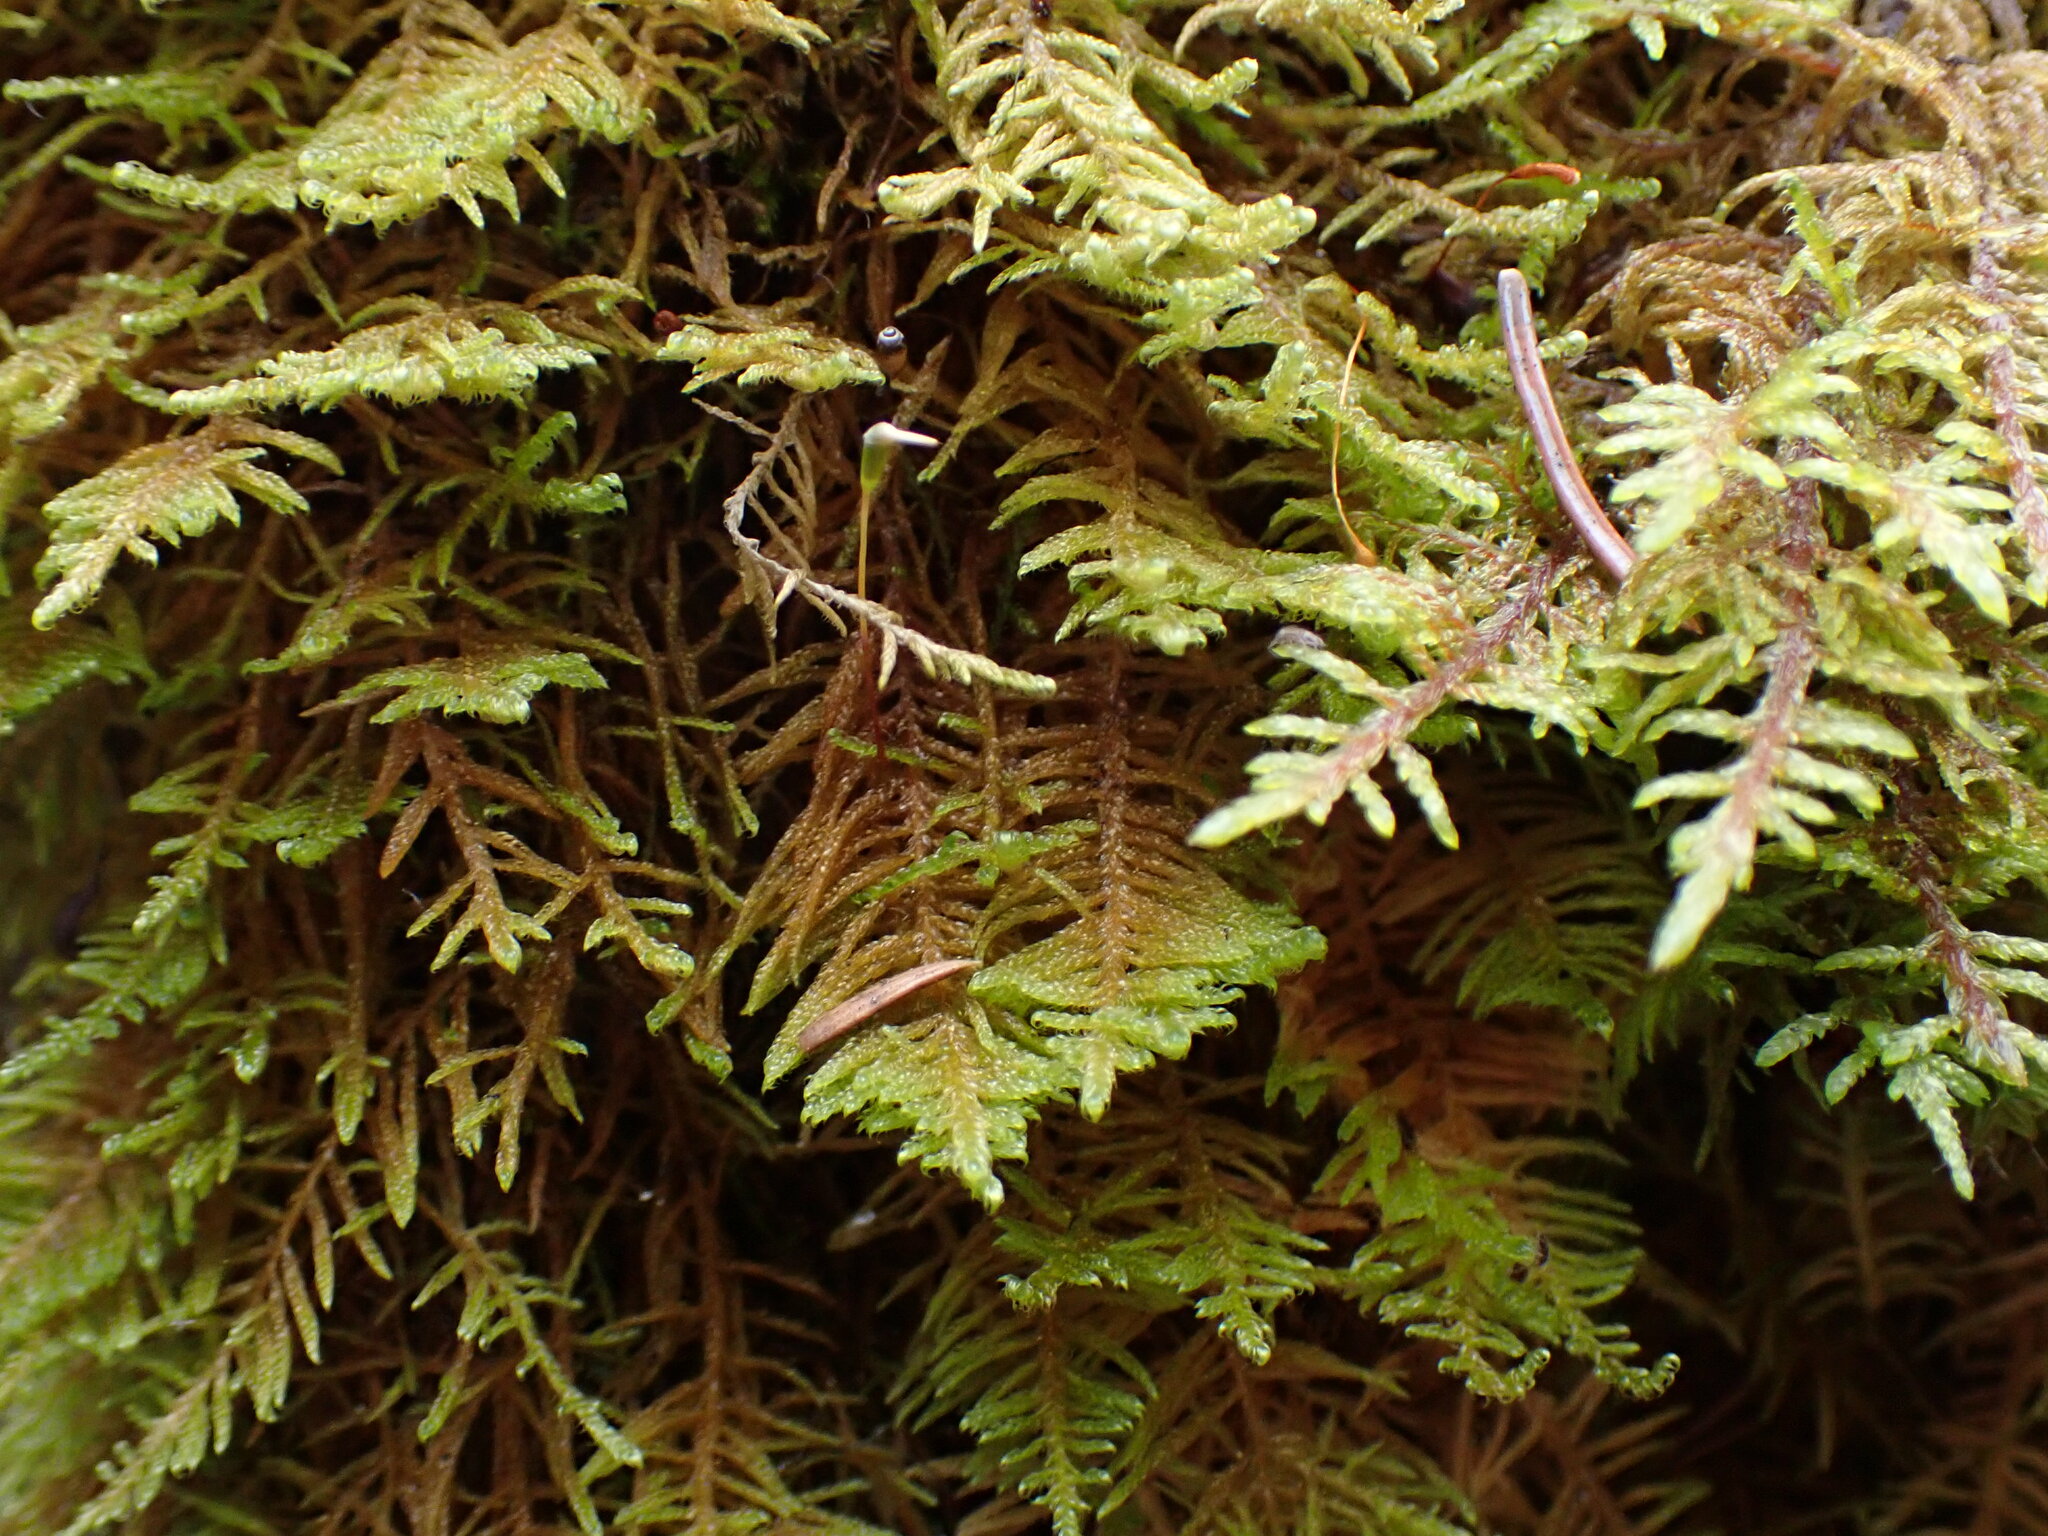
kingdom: Plantae
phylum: Bryophyta
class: Bryopsida
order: Hypnales
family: Pylaisiaceae
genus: Ptilium
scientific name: Ptilium crista-castrensis
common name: Knight's plume moss
